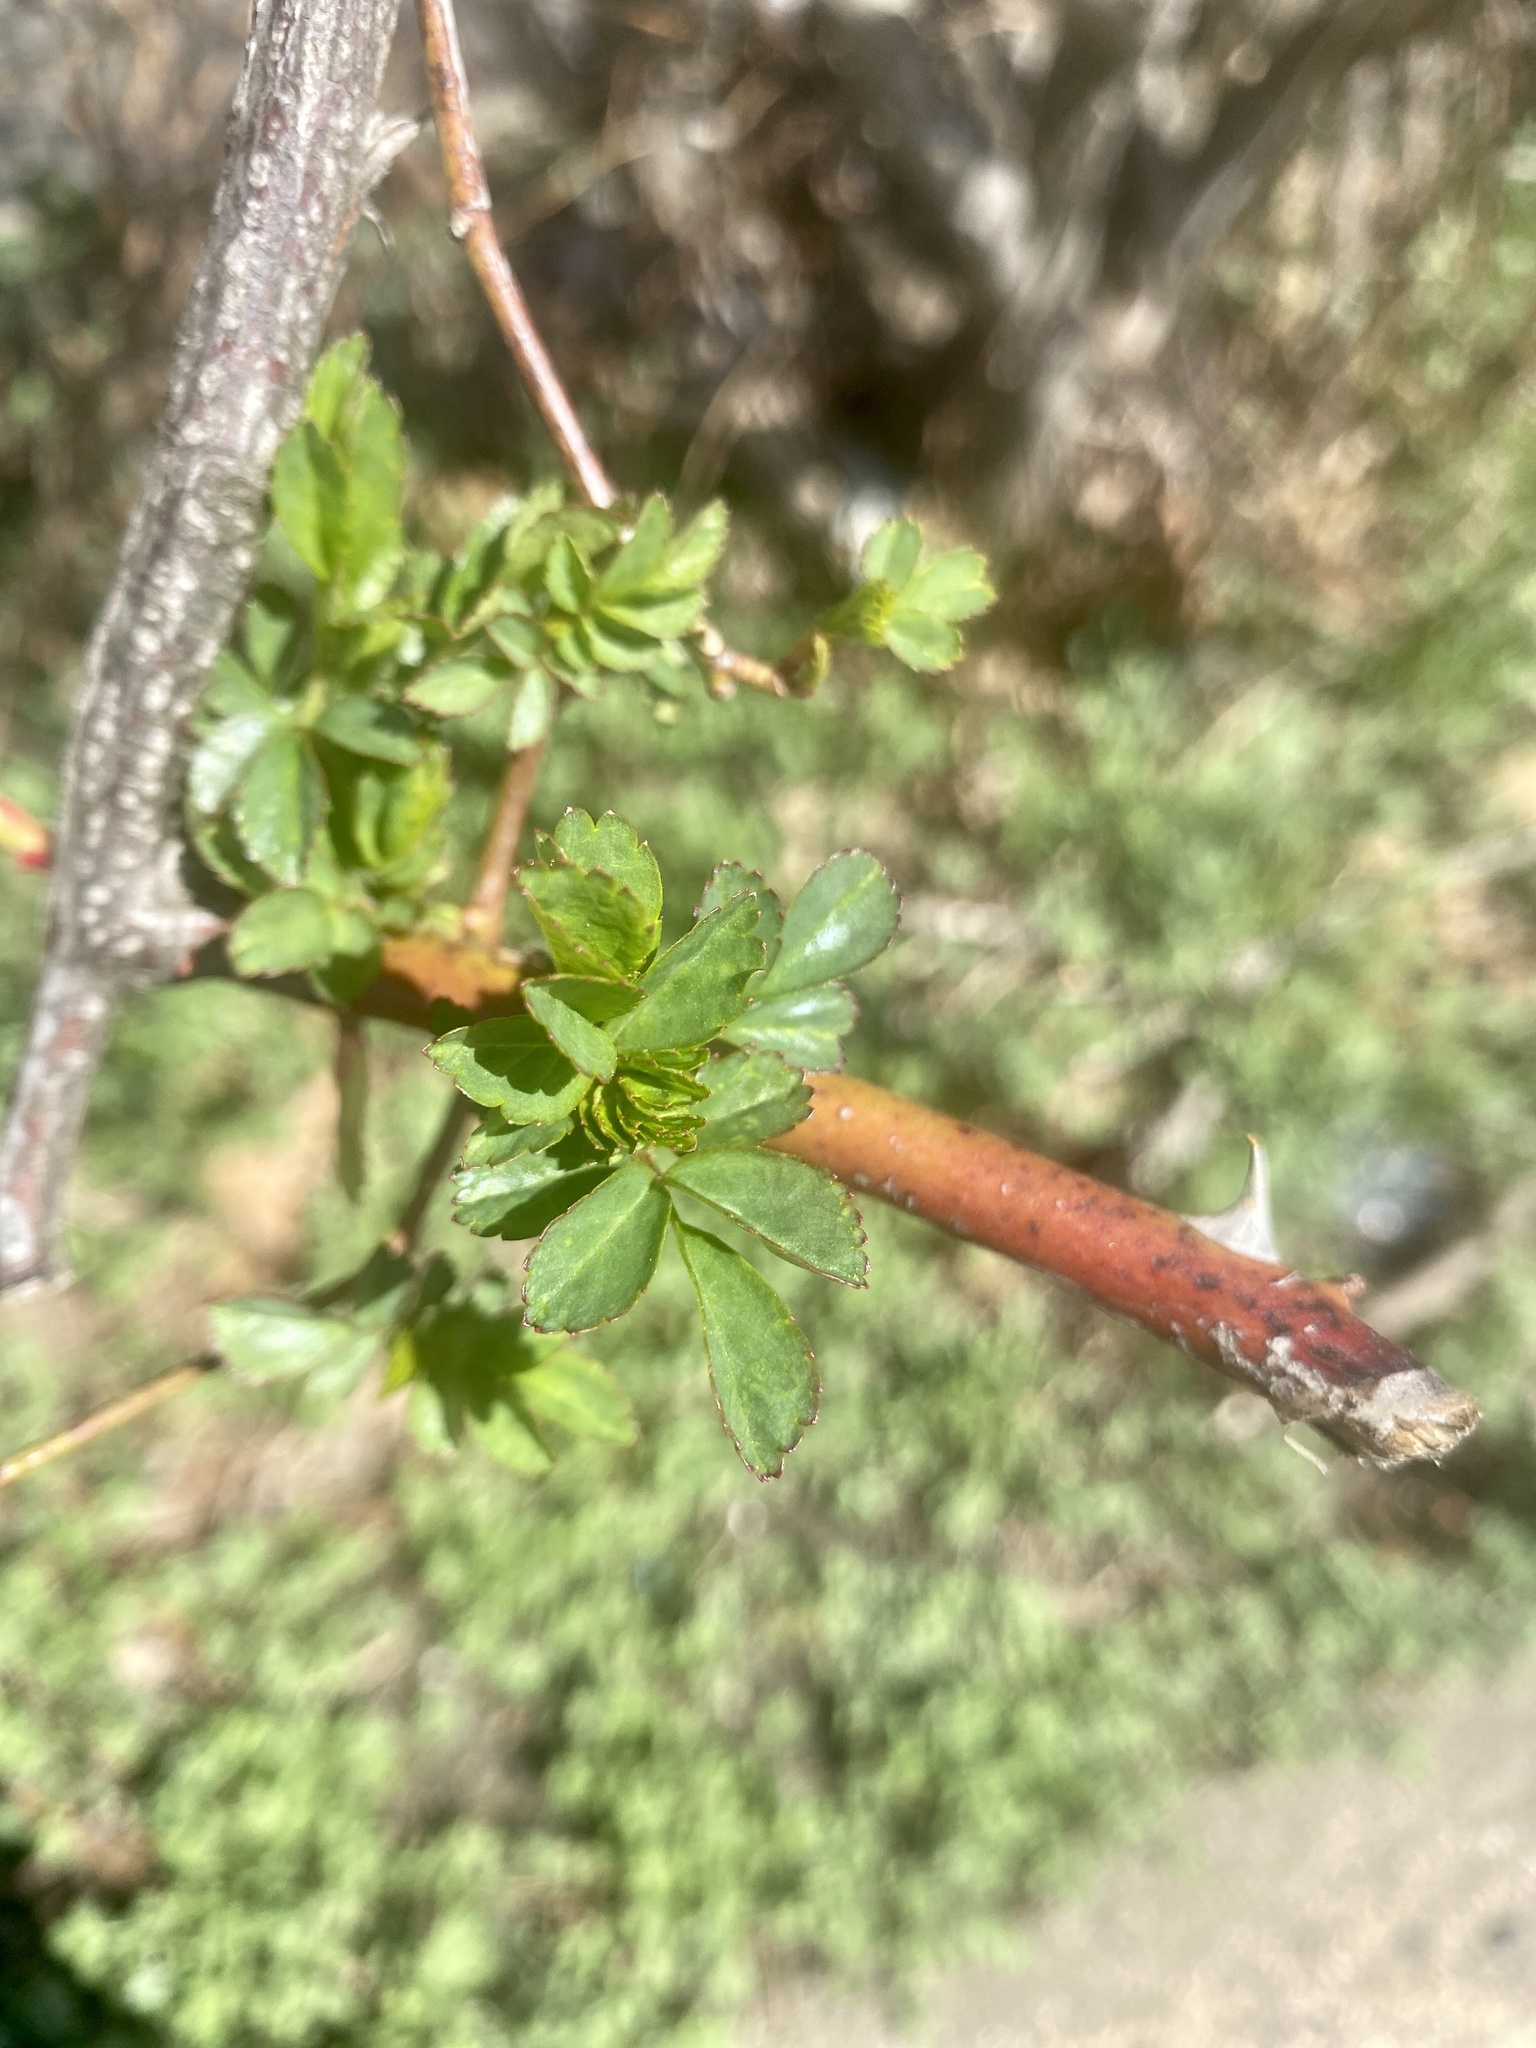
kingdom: Plantae
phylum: Tracheophyta
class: Magnoliopsida
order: Rosales
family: Rosaceae
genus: Rosa
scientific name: Rosa multiflora
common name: Multiflora rose
